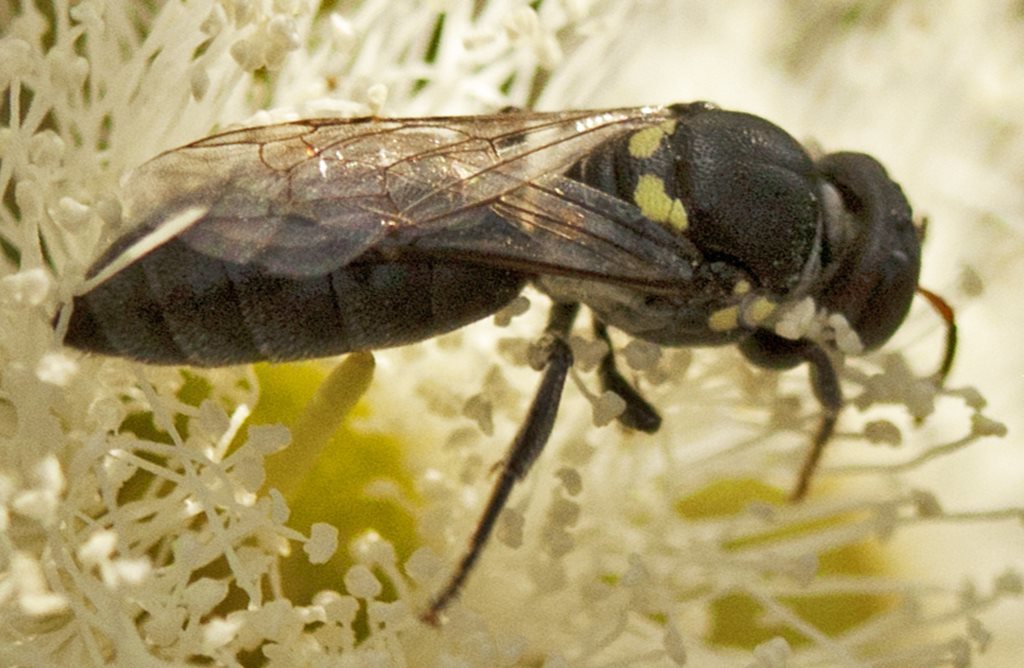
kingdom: Animalia
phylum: Arthropoda
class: Insecta
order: Hymenoptera
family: Colletidae
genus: Meroglossa
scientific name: Meroglossa sculptissima
